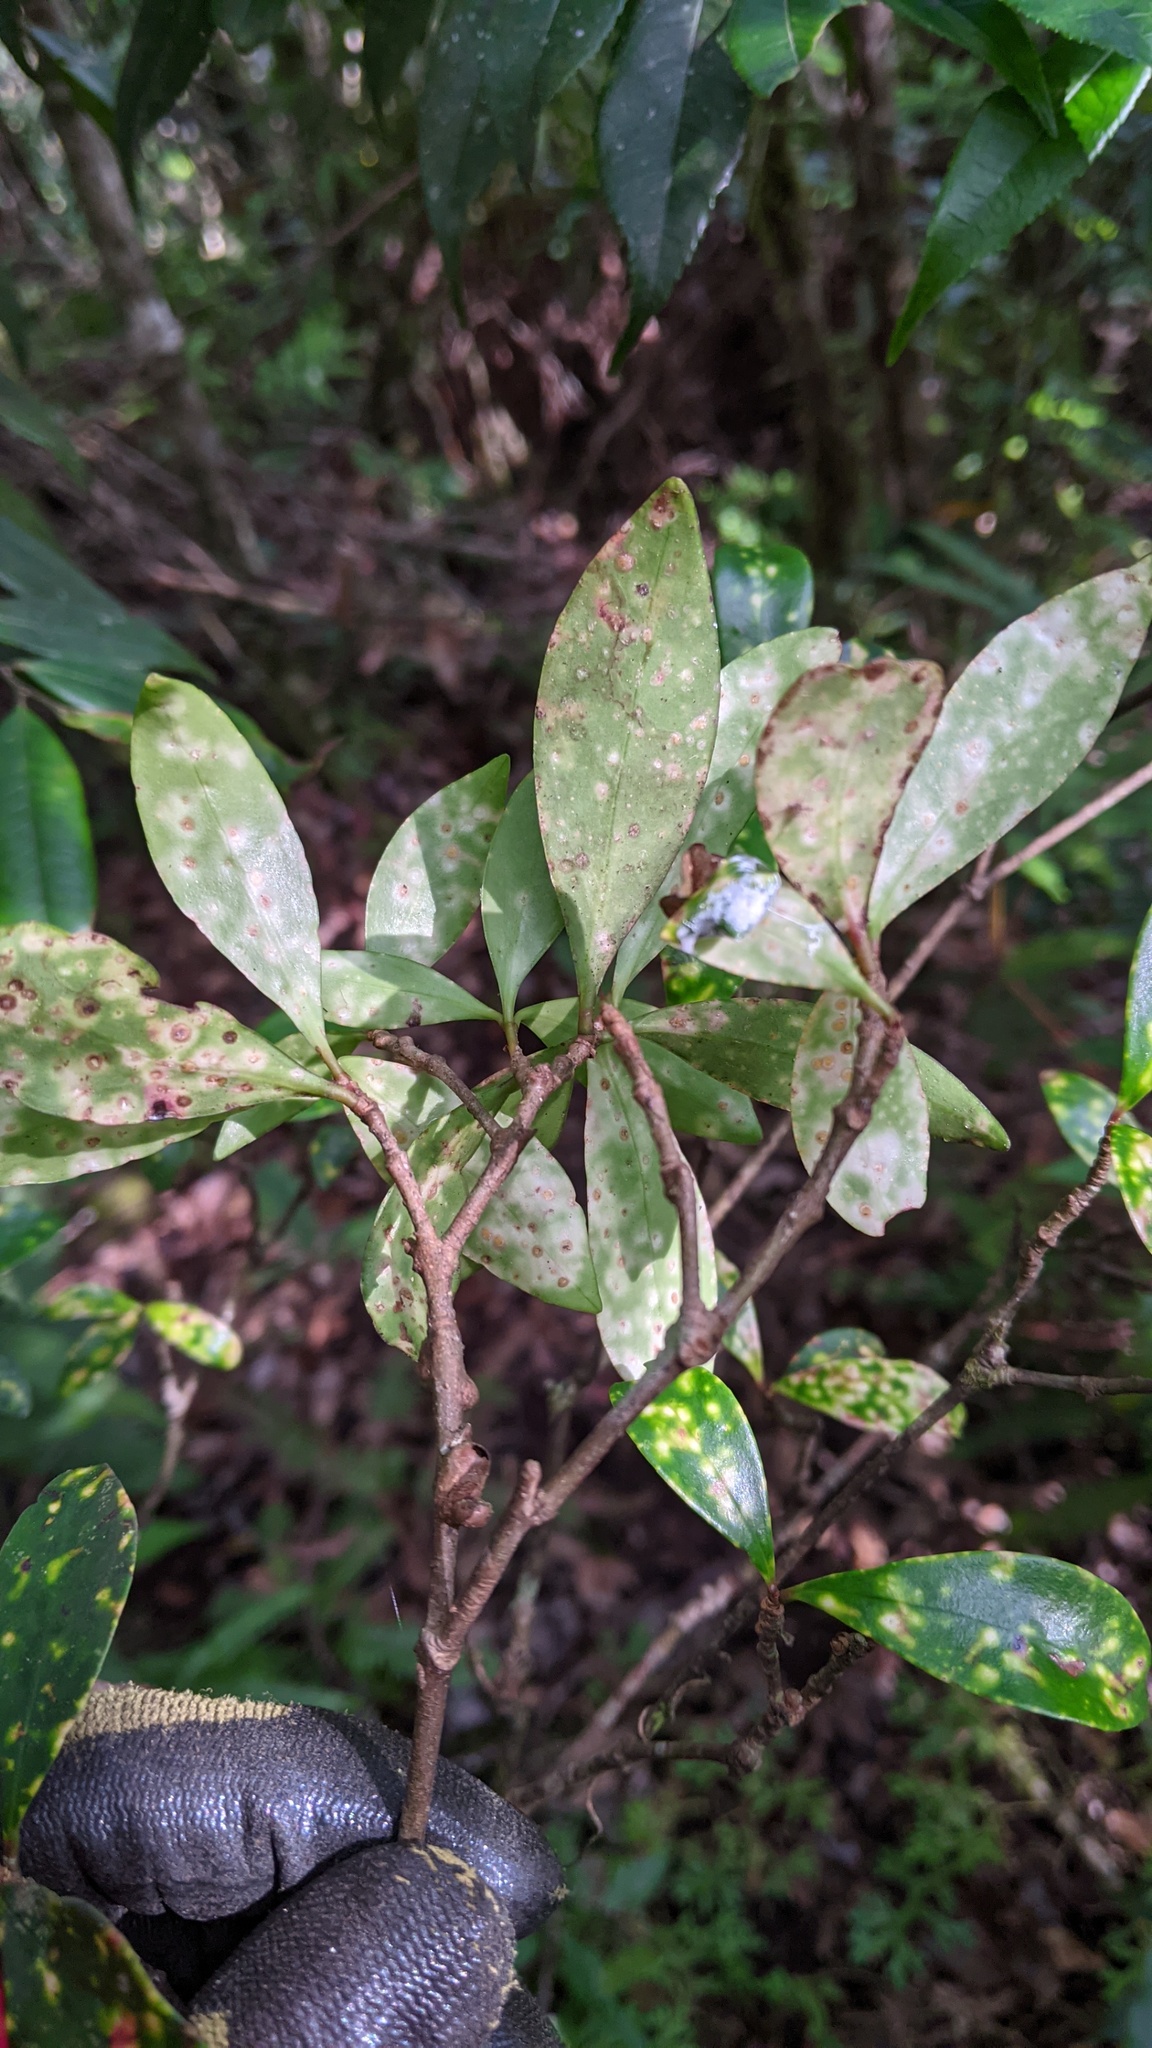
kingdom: Plantae
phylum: Tracheophyta
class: Magnoliopsida
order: Ericales
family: Pentaphylacaceae
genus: Ternstroemia
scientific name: Ternstroemia gymnanthera
